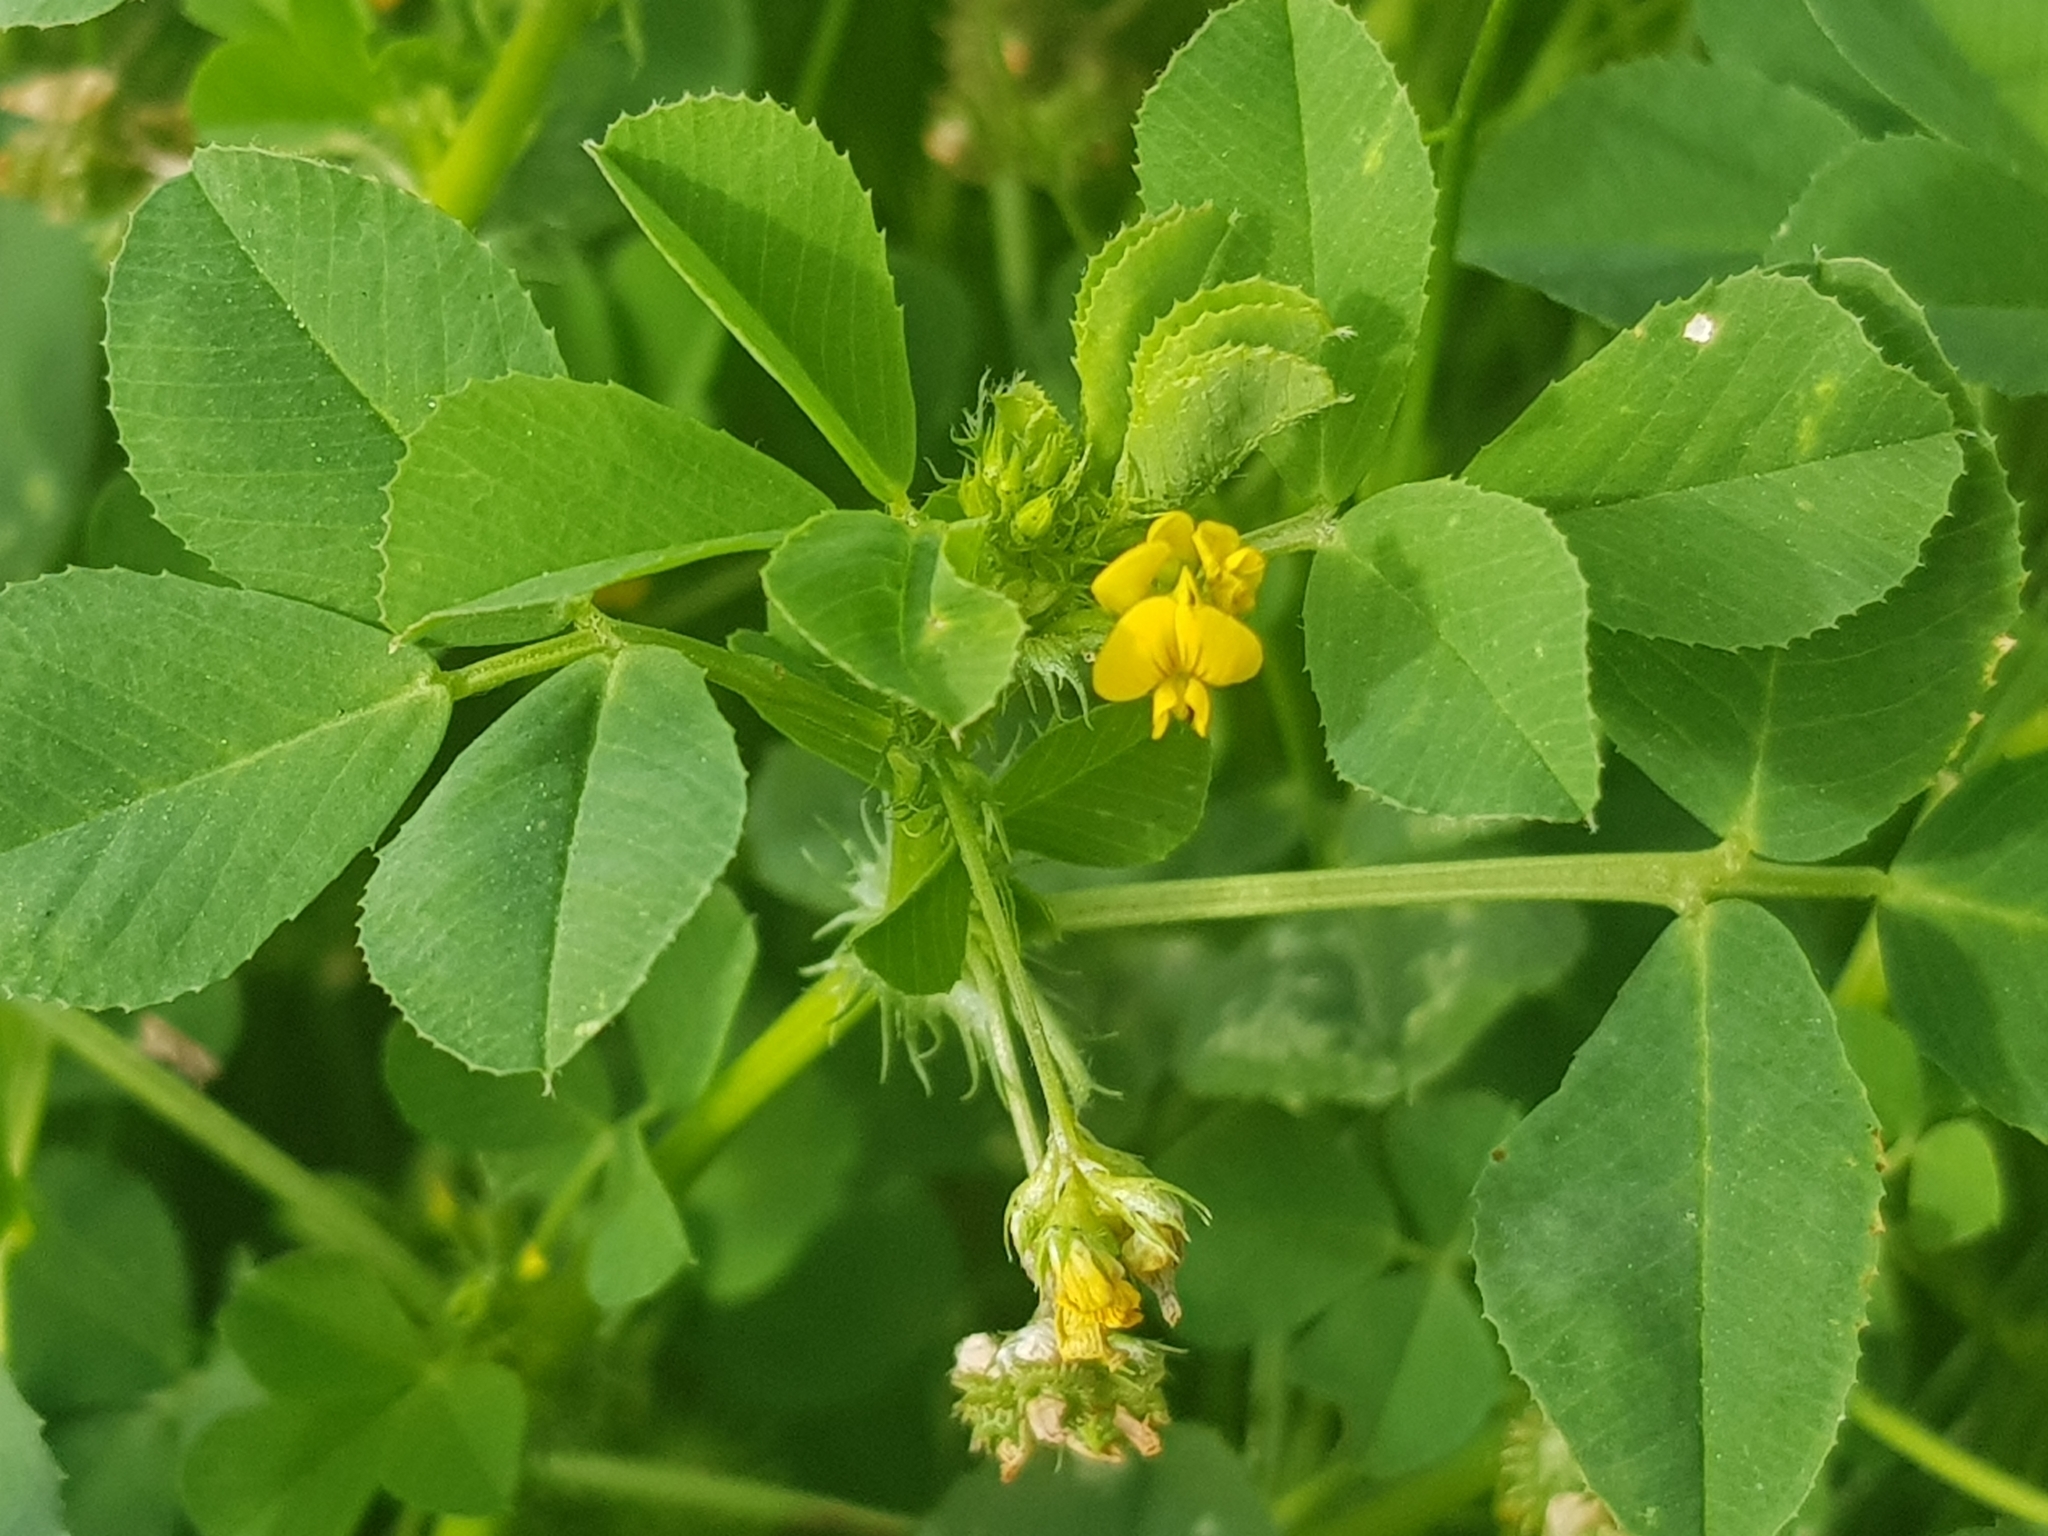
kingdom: Plantae
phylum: Tracheophyta
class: Magnoliopsida
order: Fabales
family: Fabaceae
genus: Medicago
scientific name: Medicago polymorpha
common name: Burclover
